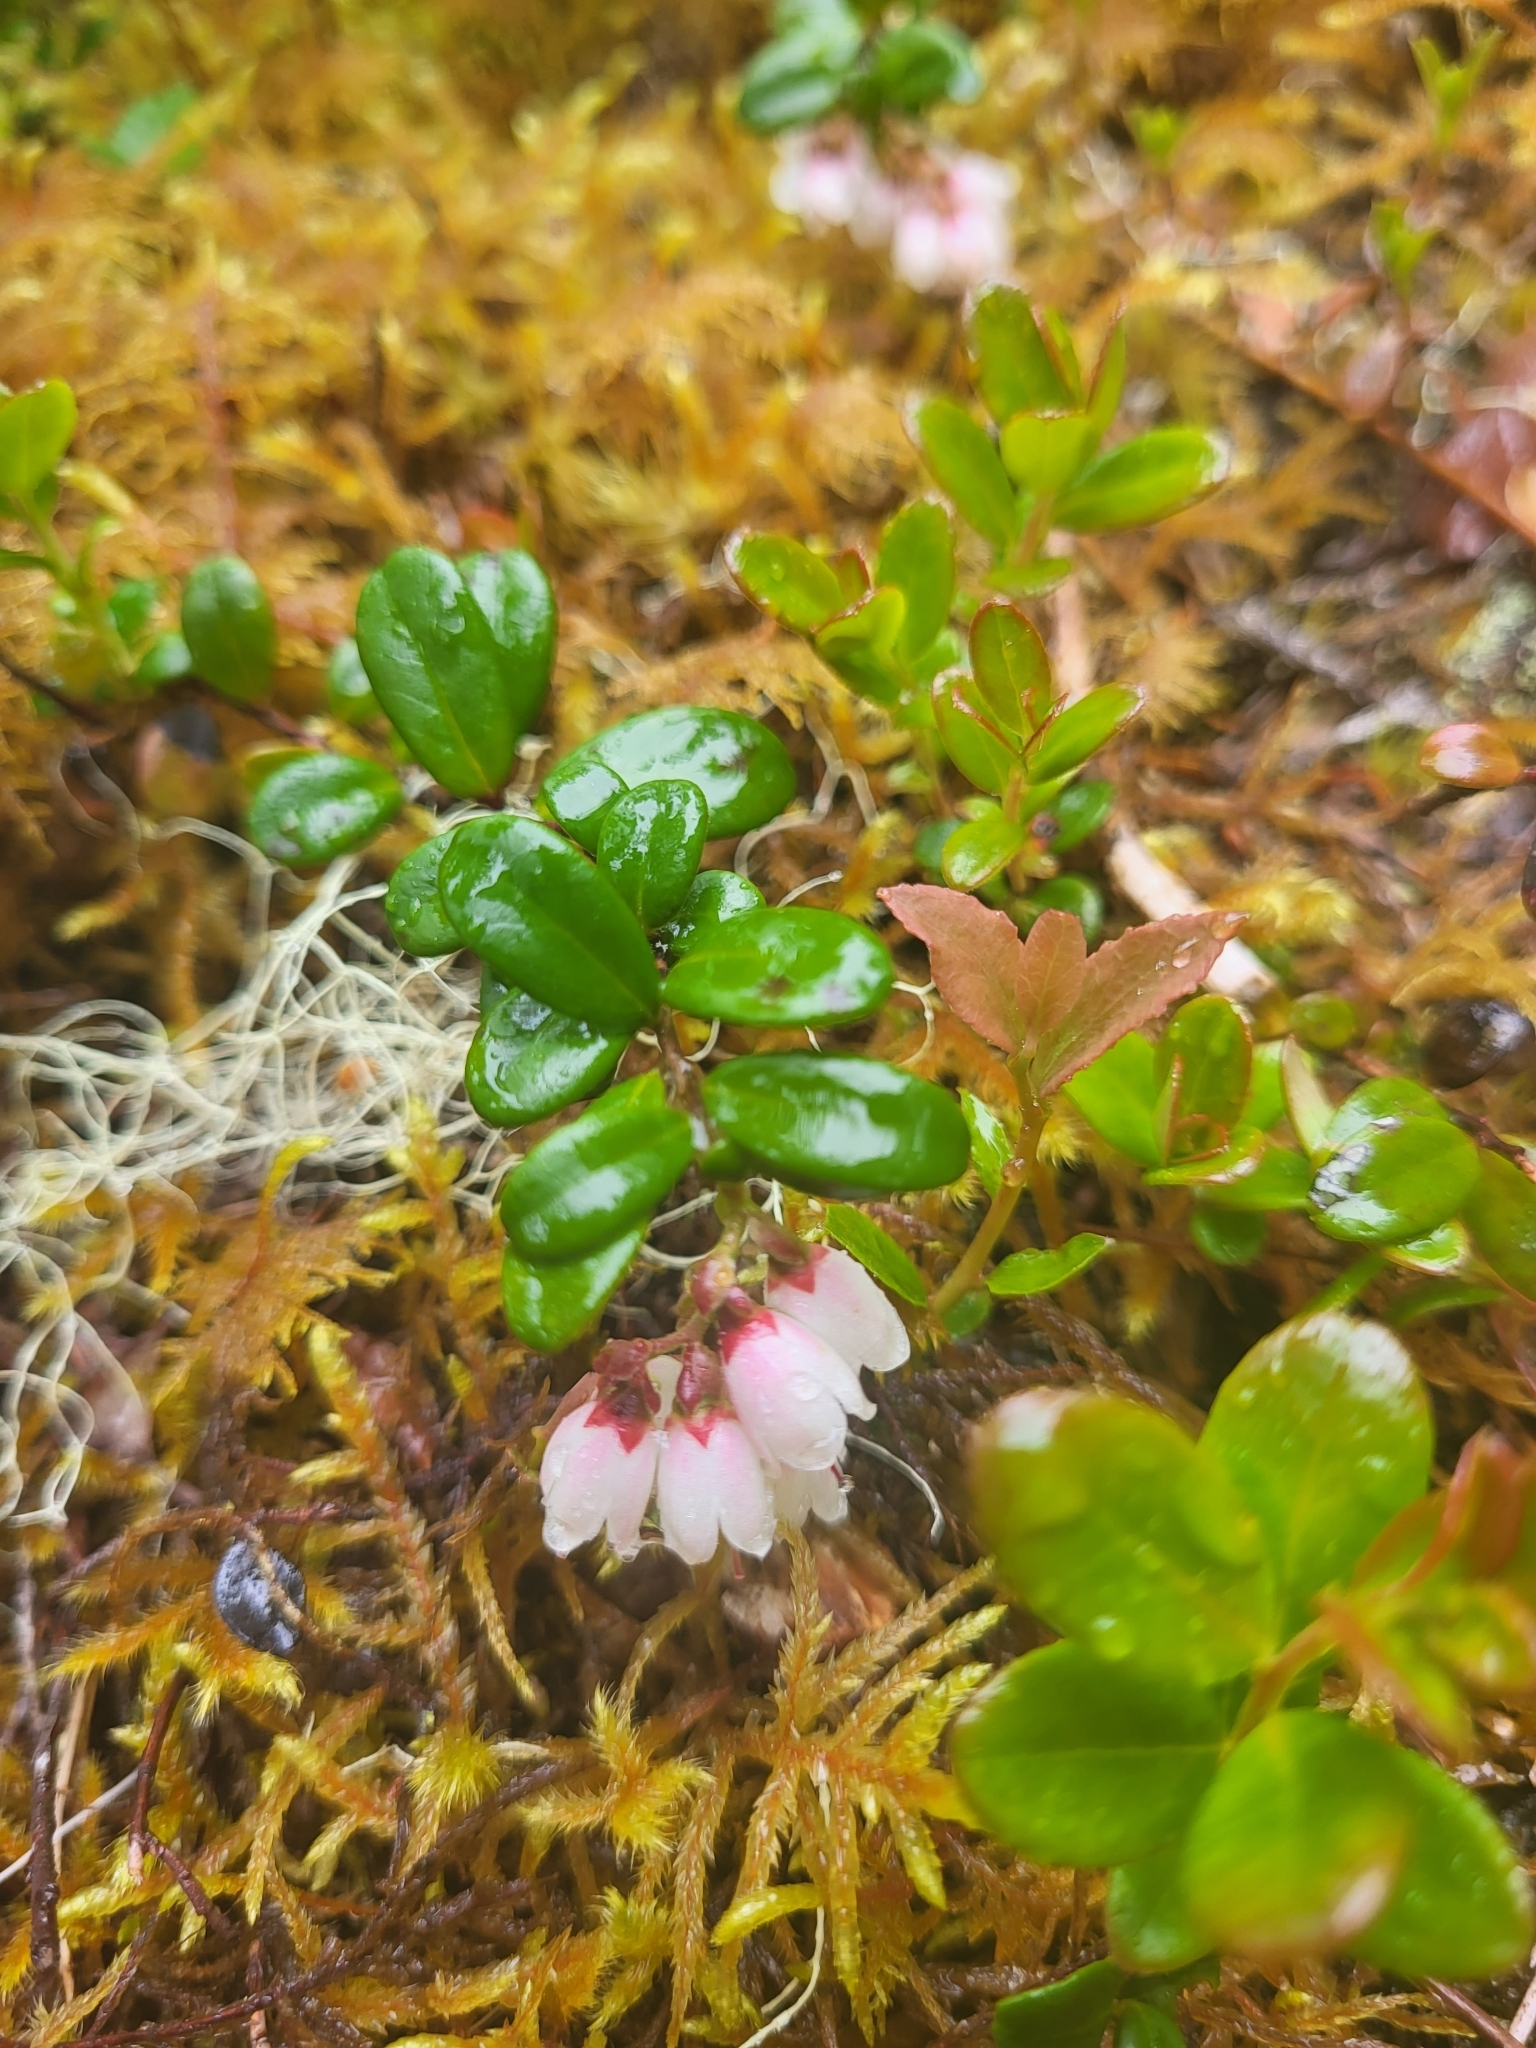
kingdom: Plantae
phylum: Tracheophyta
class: Magnoliopsida
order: Ericales
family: Ericaceae
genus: Vaccinium
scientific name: Vaccinium vitis-idaea
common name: Cowberry
